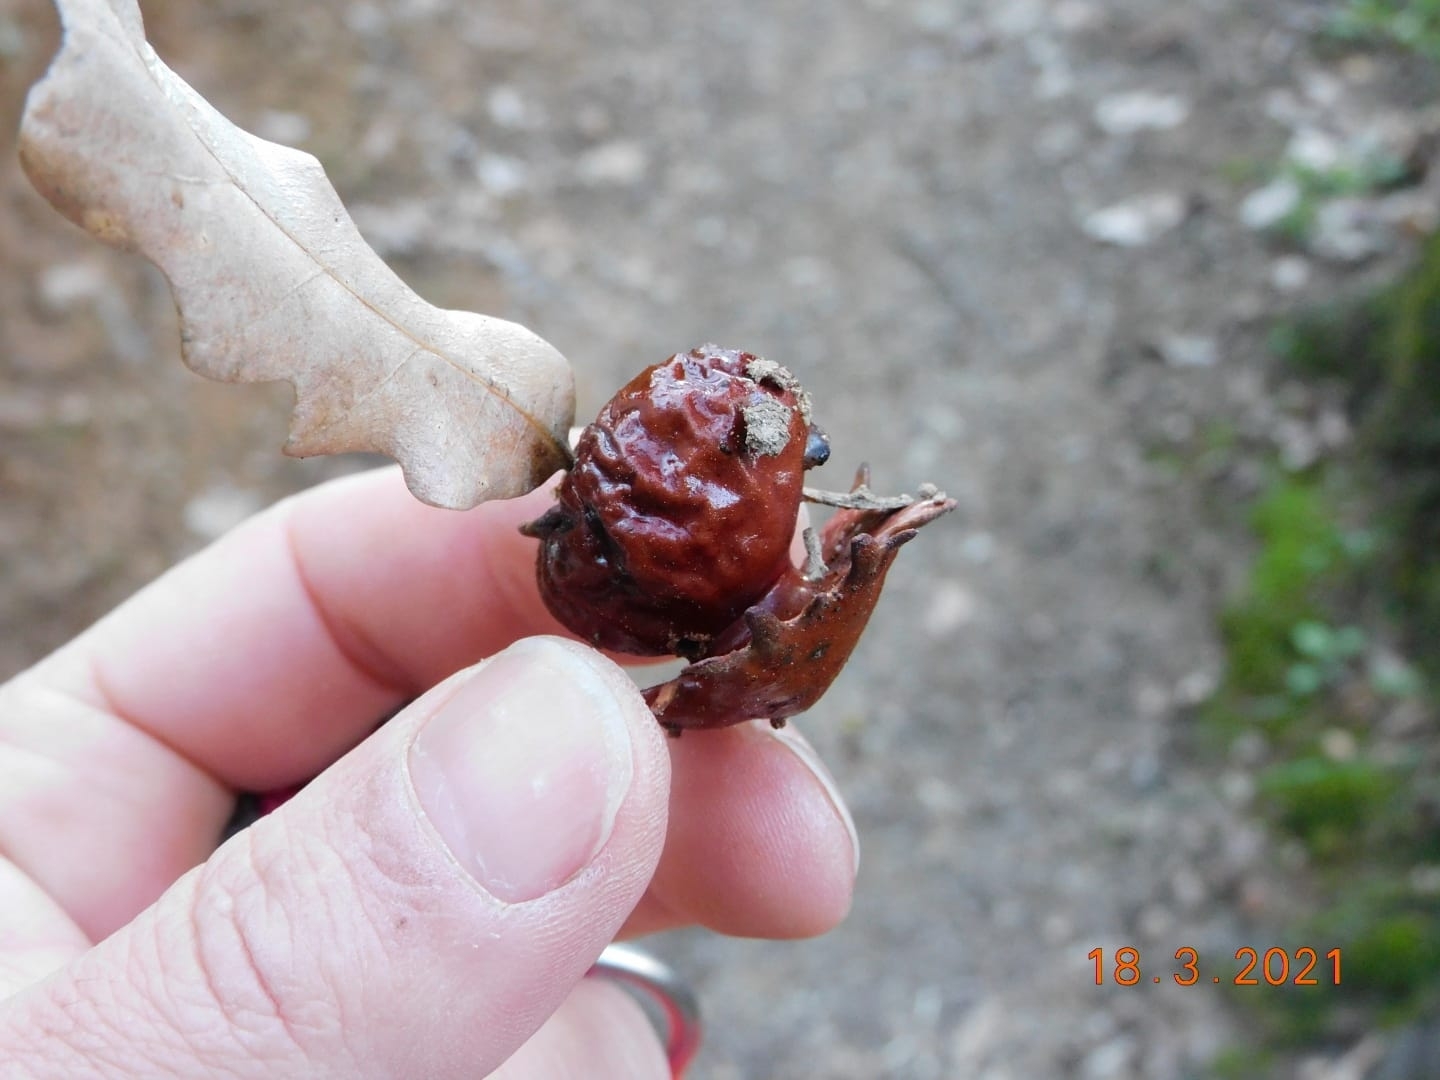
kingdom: Animalia
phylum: Arthropoda
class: Insecta
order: Hymenoptera
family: Cynipidae
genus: Andricus
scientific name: Andricus dentimitratus
